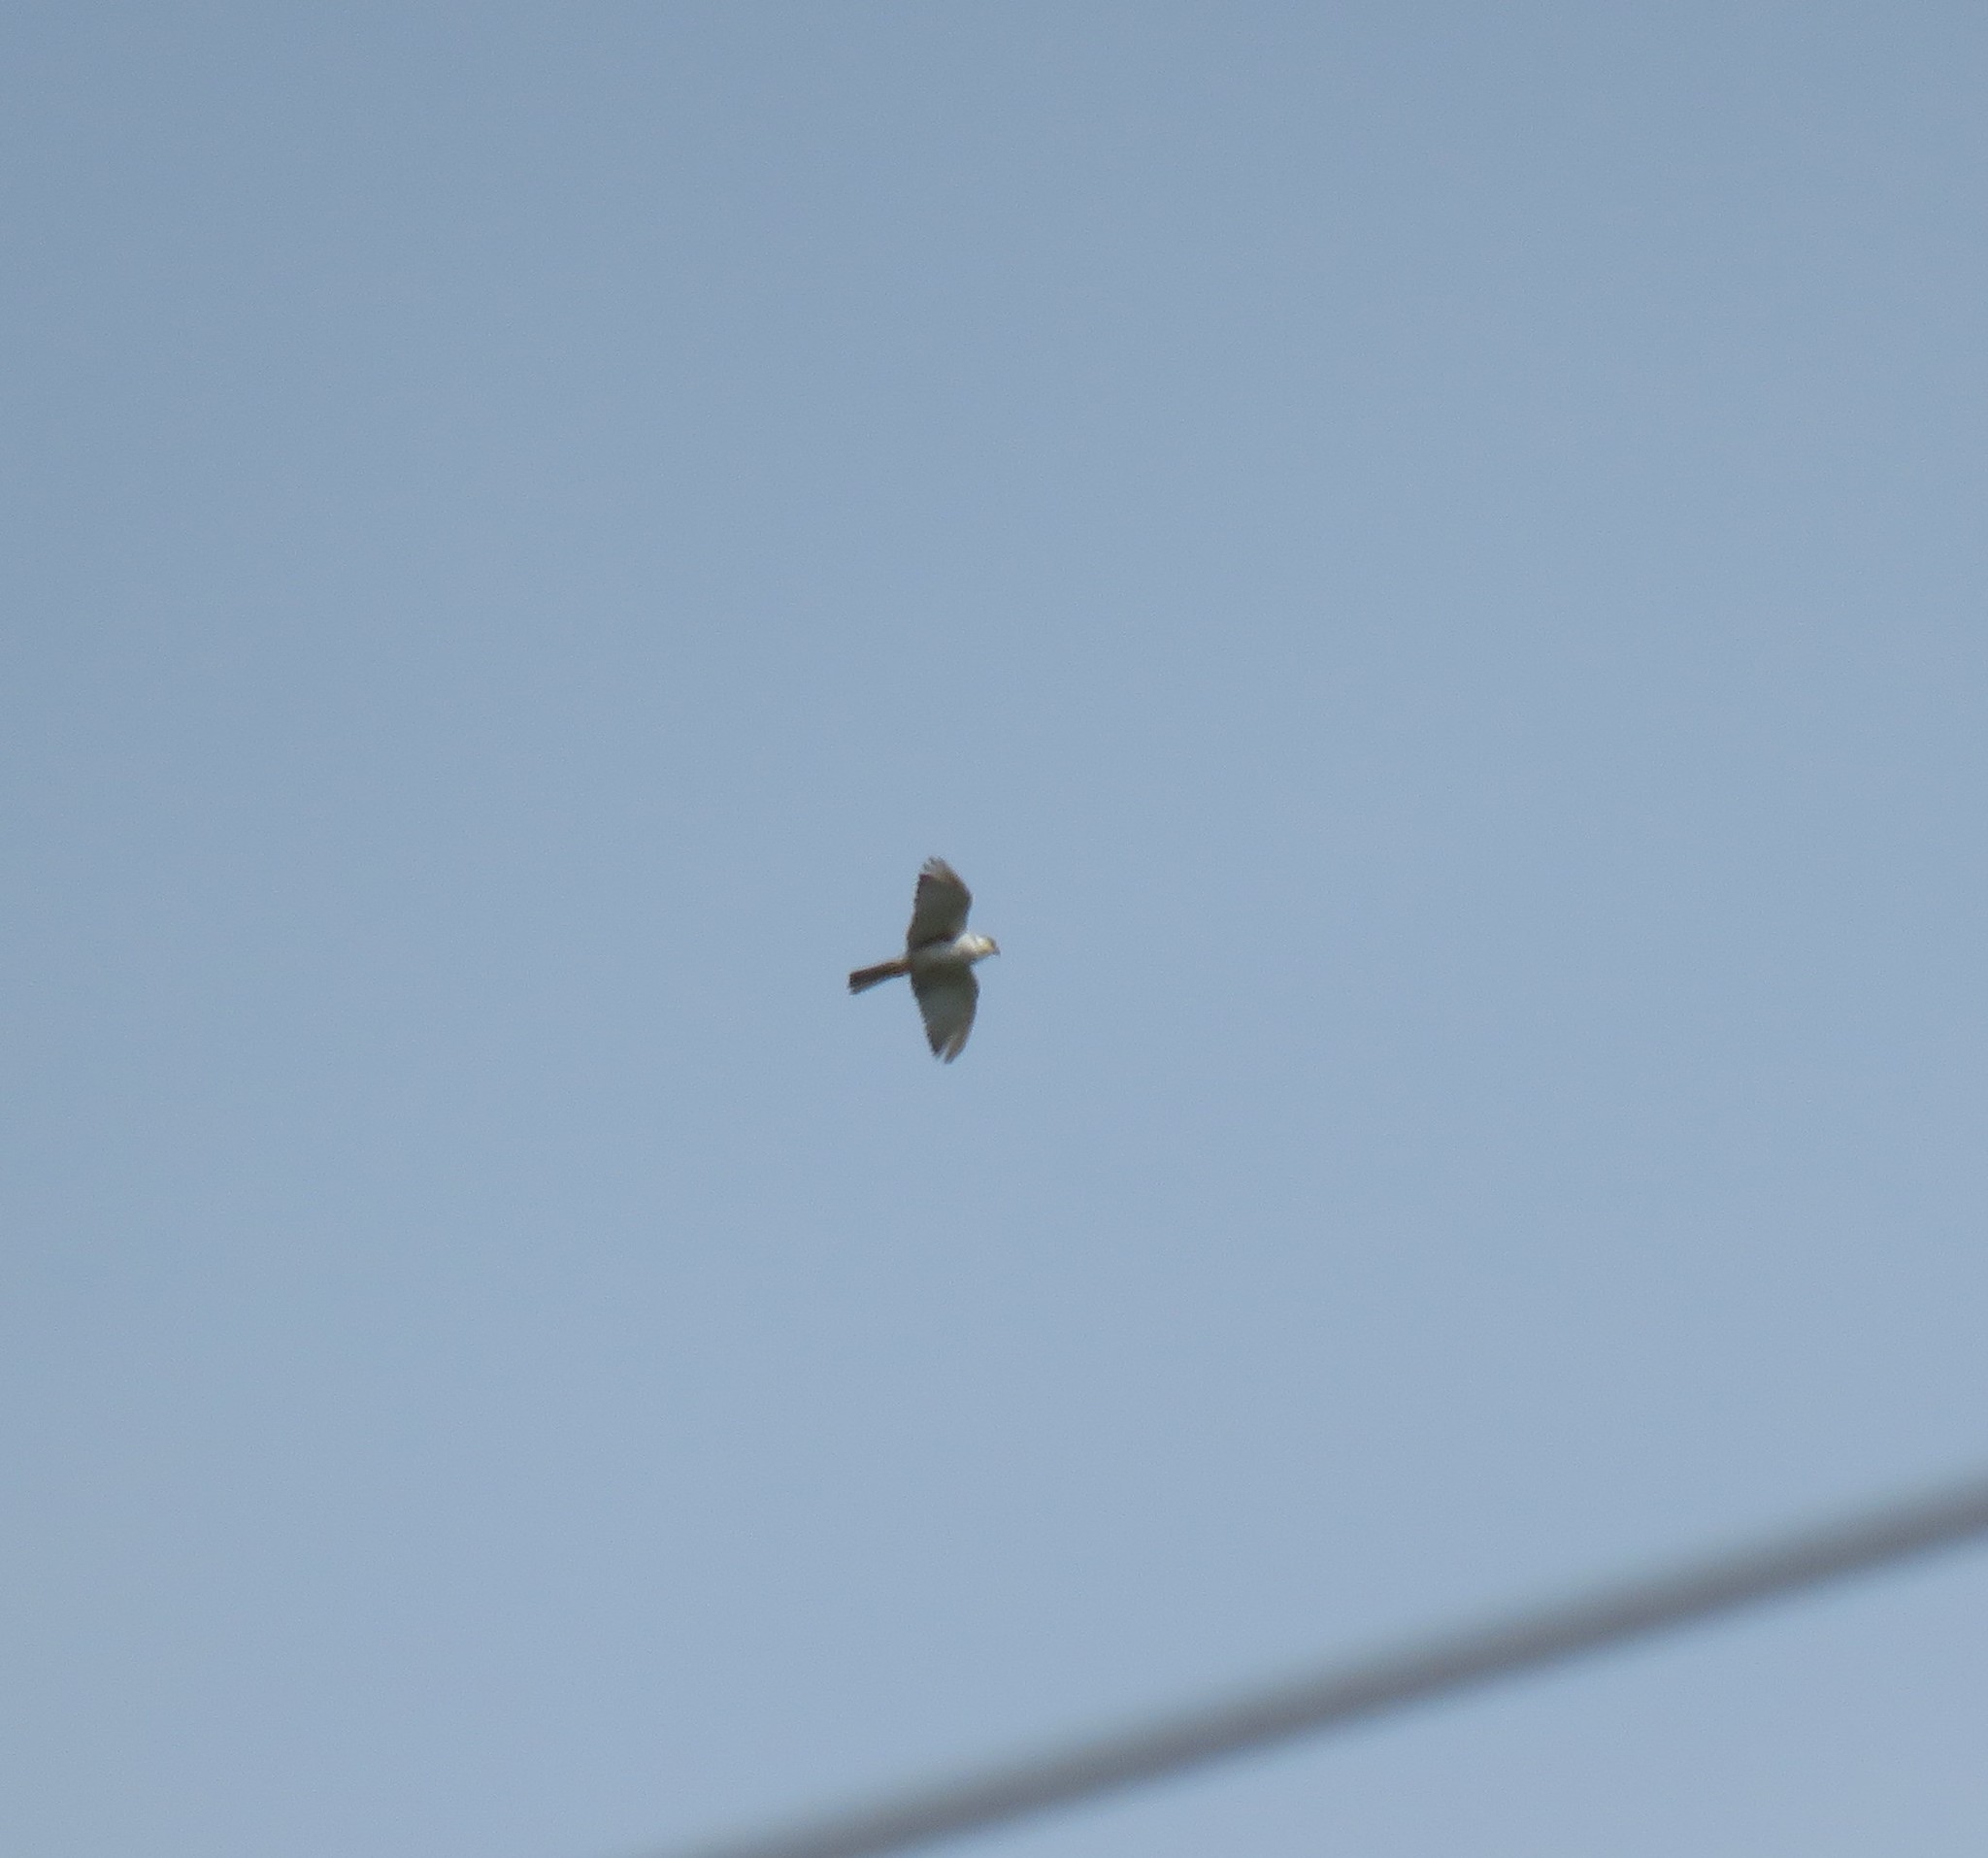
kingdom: Animalia
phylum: Chordata
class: Aves
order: Accipitriformes
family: Accipitridae
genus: Gampsonyx
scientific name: Gampsonyx swainsonii
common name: Pearl kite
